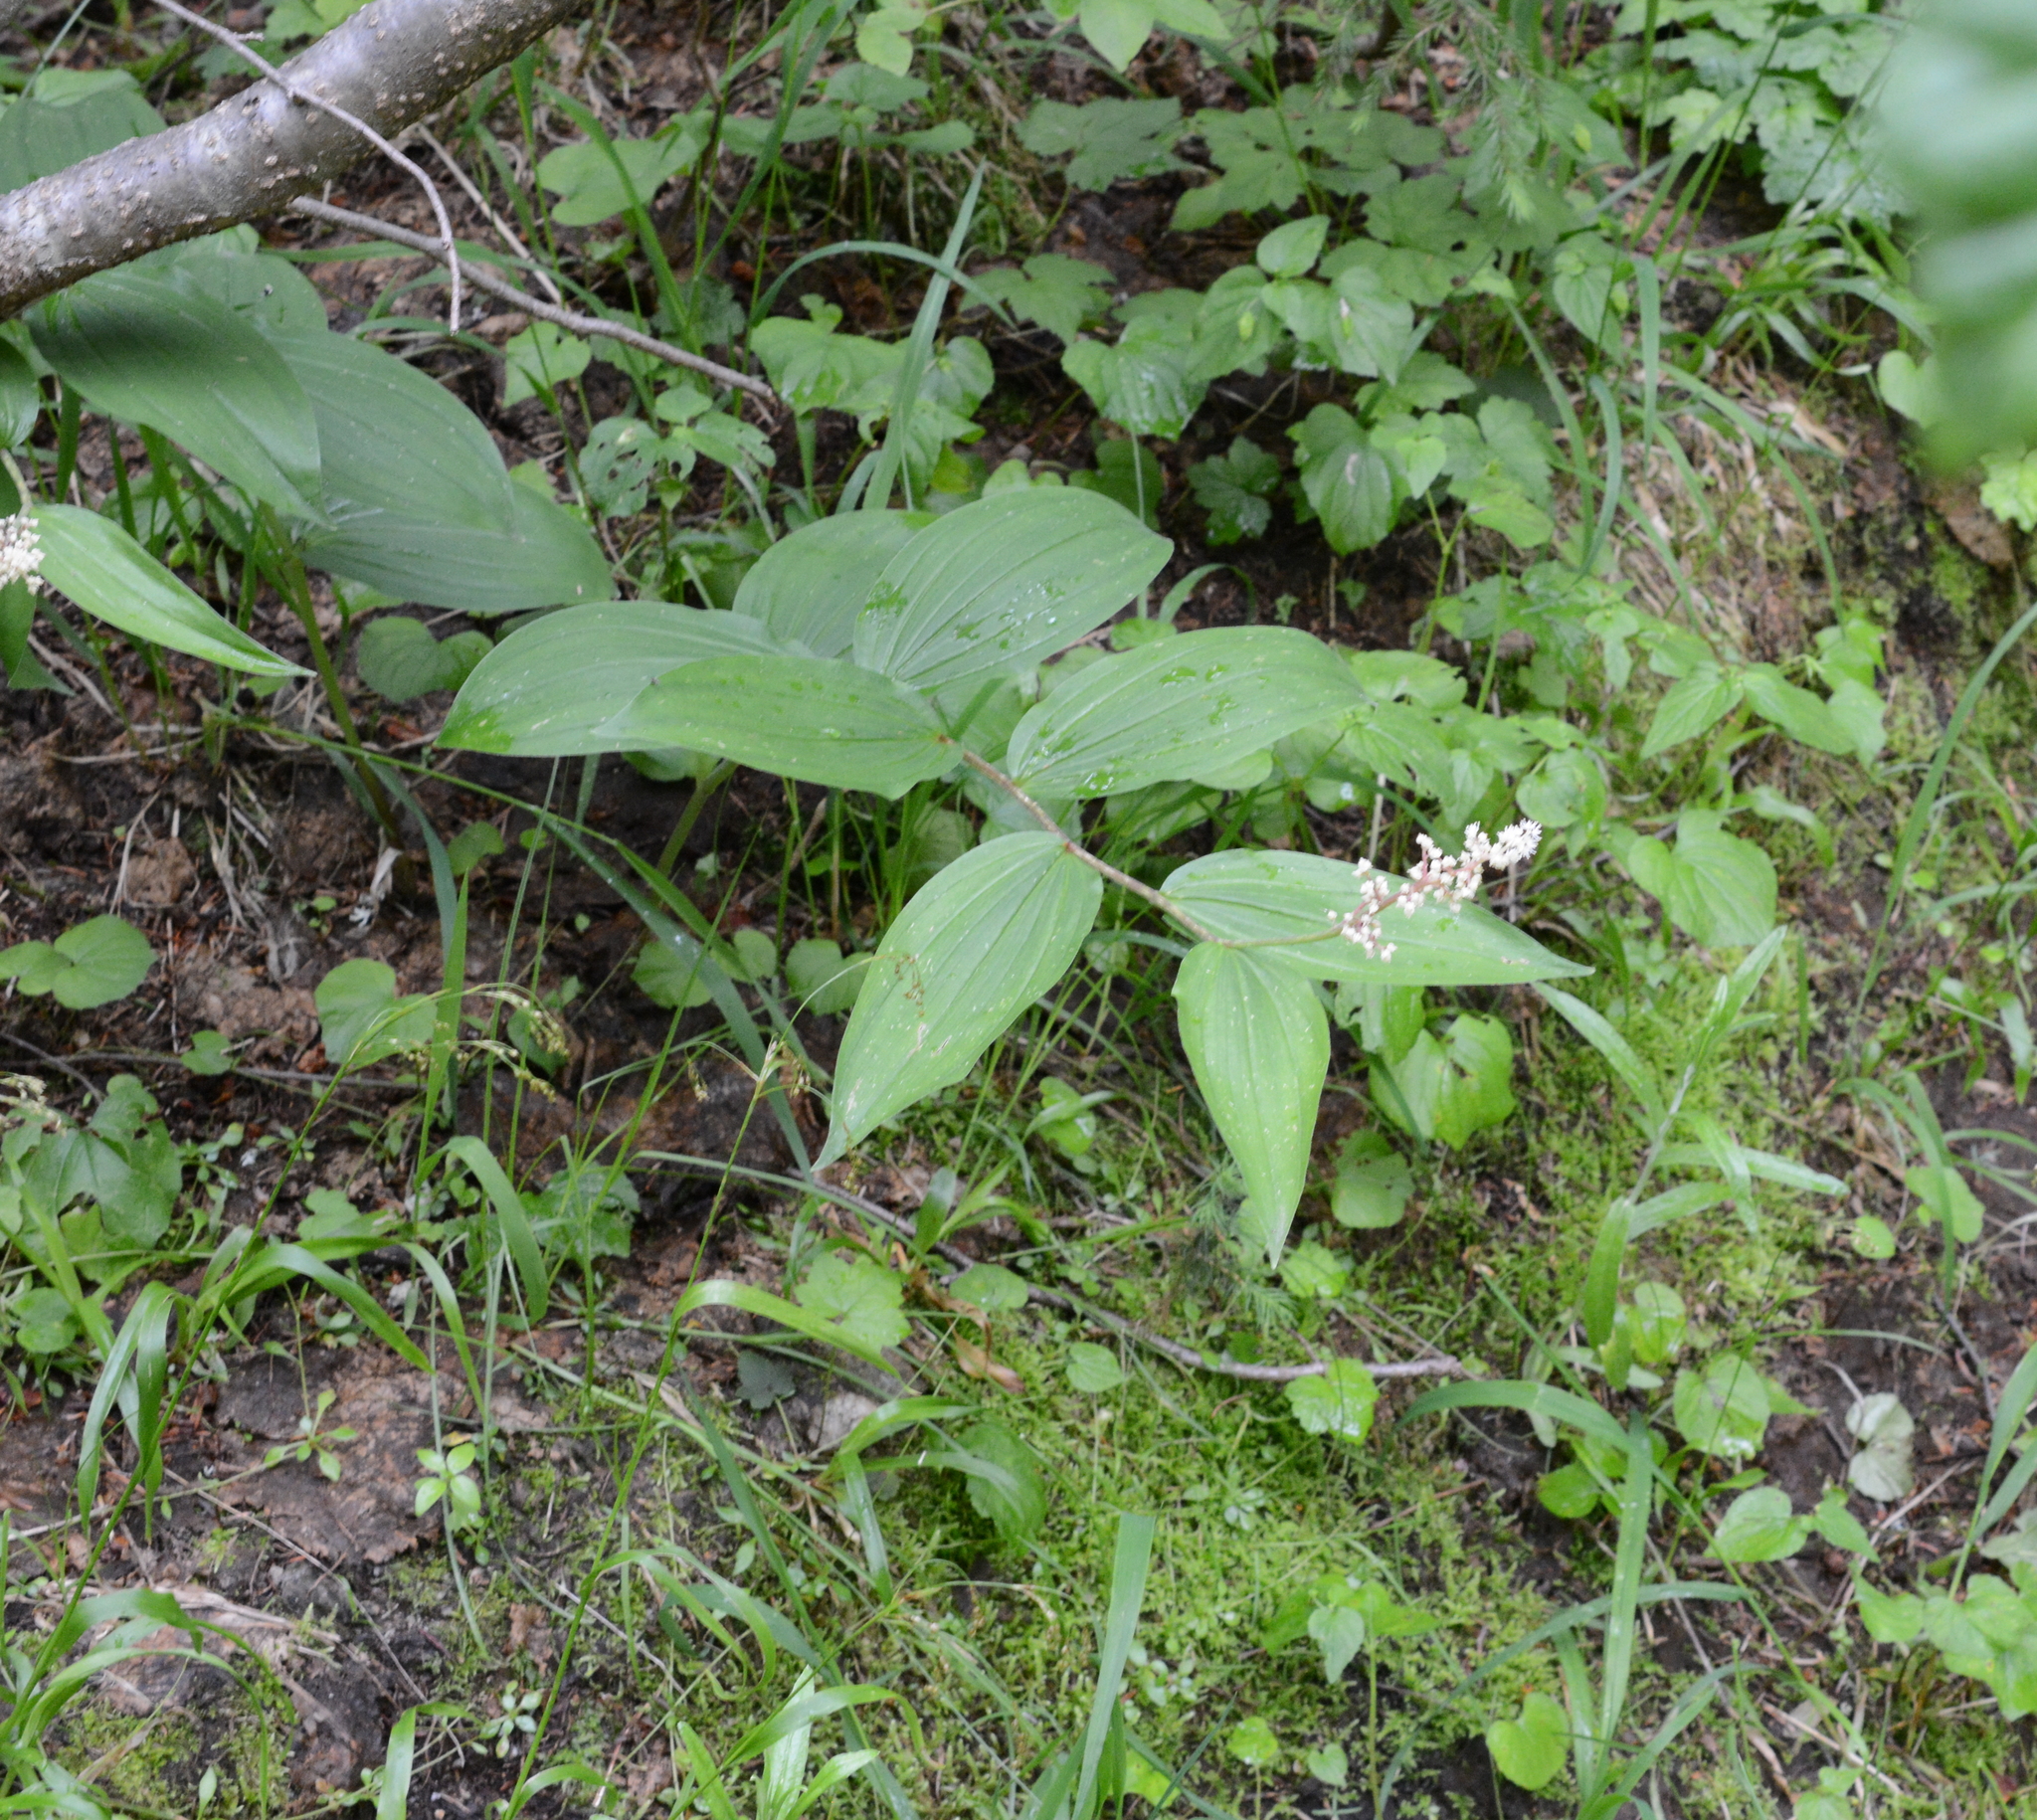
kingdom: Plantae
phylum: Tracheophyta
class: Liliopsida
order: Asparagales
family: Asparagaceae
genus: Maianthemum
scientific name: Maianthemum racemosum
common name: False spikenard
